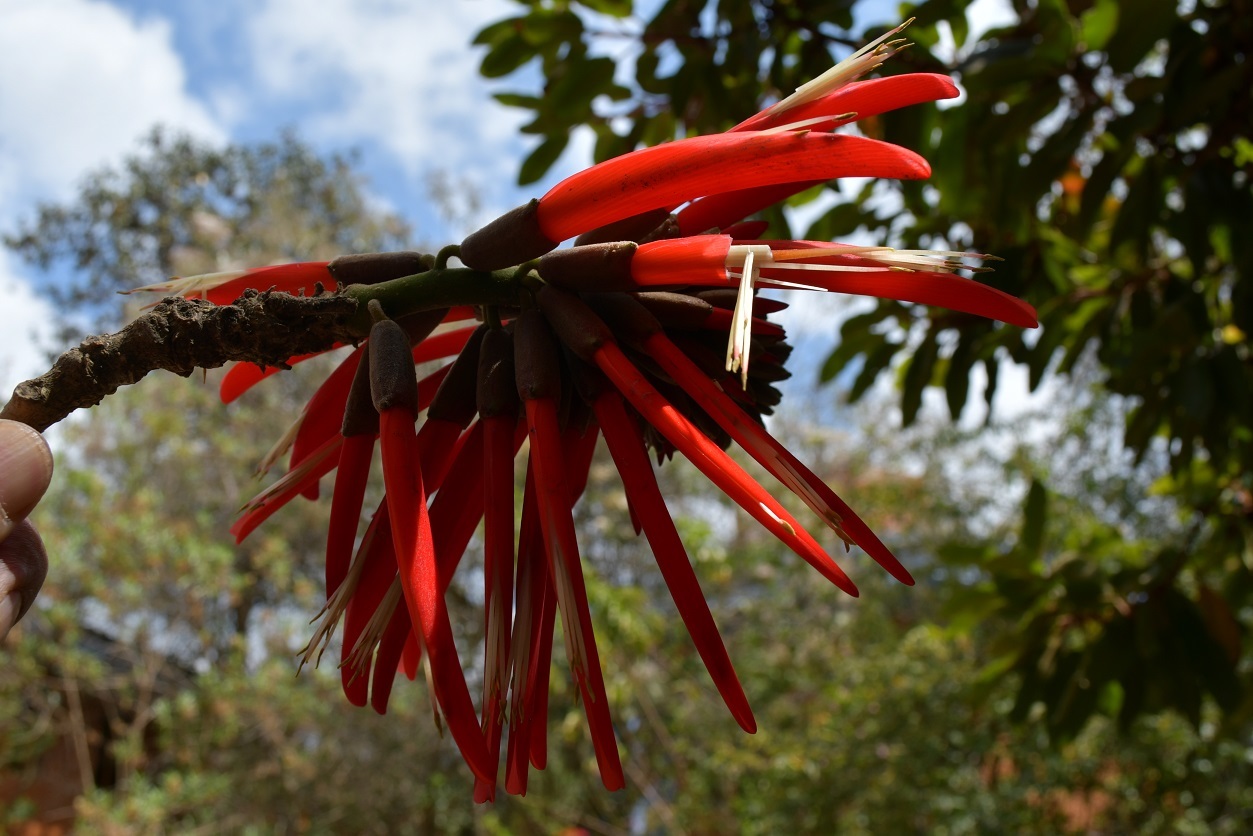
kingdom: Plantae
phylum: Tracheophyta
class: Magnoliopsida
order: Fabales
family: Fabaceae
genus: Erythrina
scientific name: Erythrina berteroana
